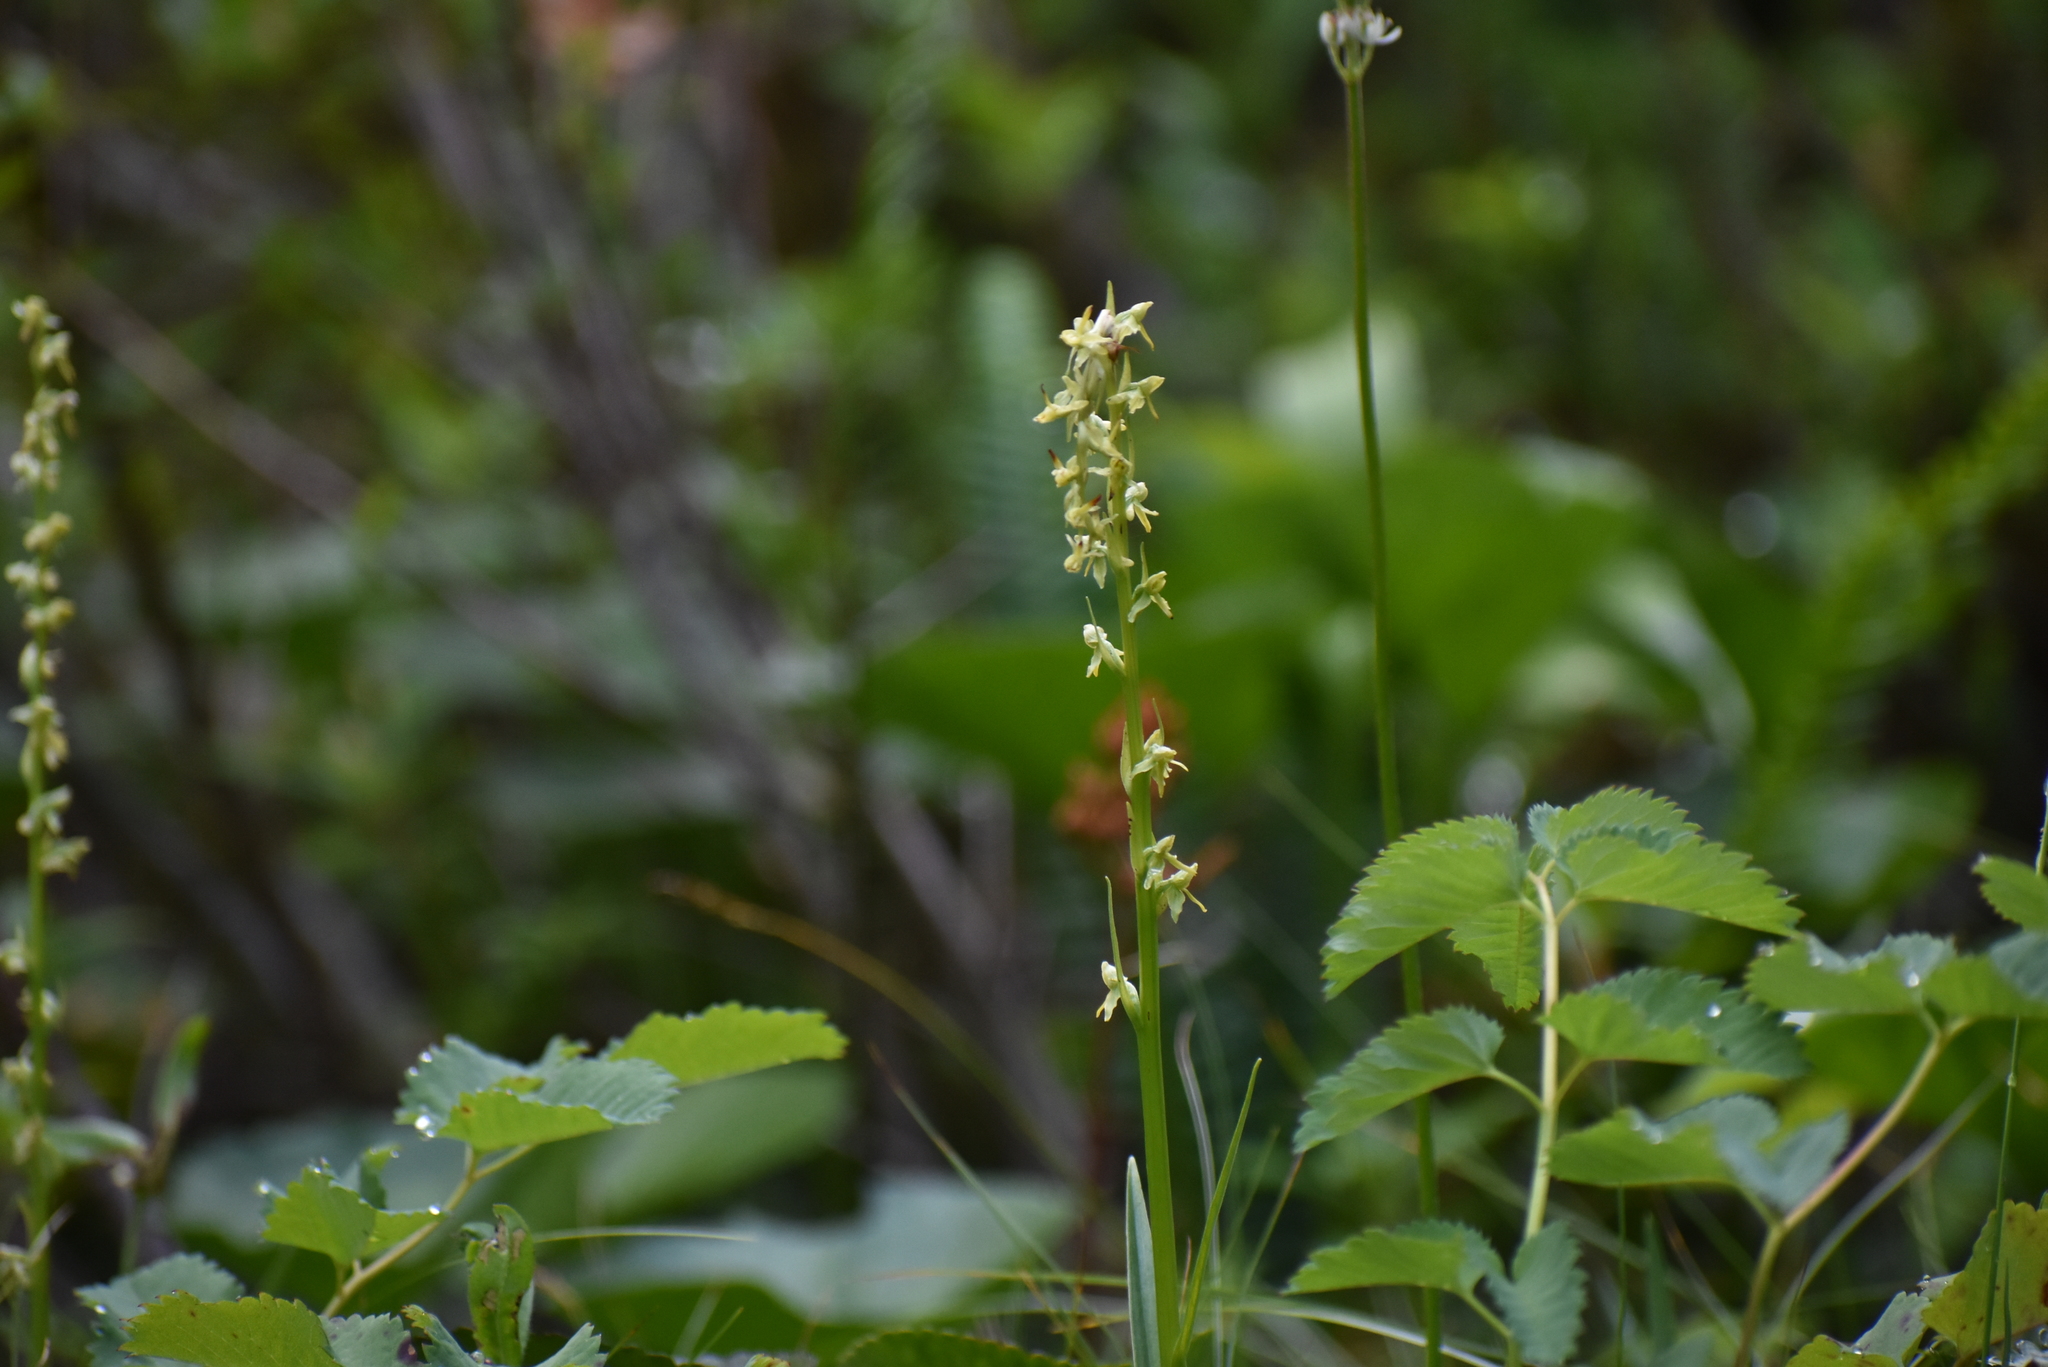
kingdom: Plantae
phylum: Tracheophyta
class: Liliopsida
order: Asparagales
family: Orchidaceae
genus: Platanthera
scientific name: Platanthera stricta
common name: Slender bog orchid
